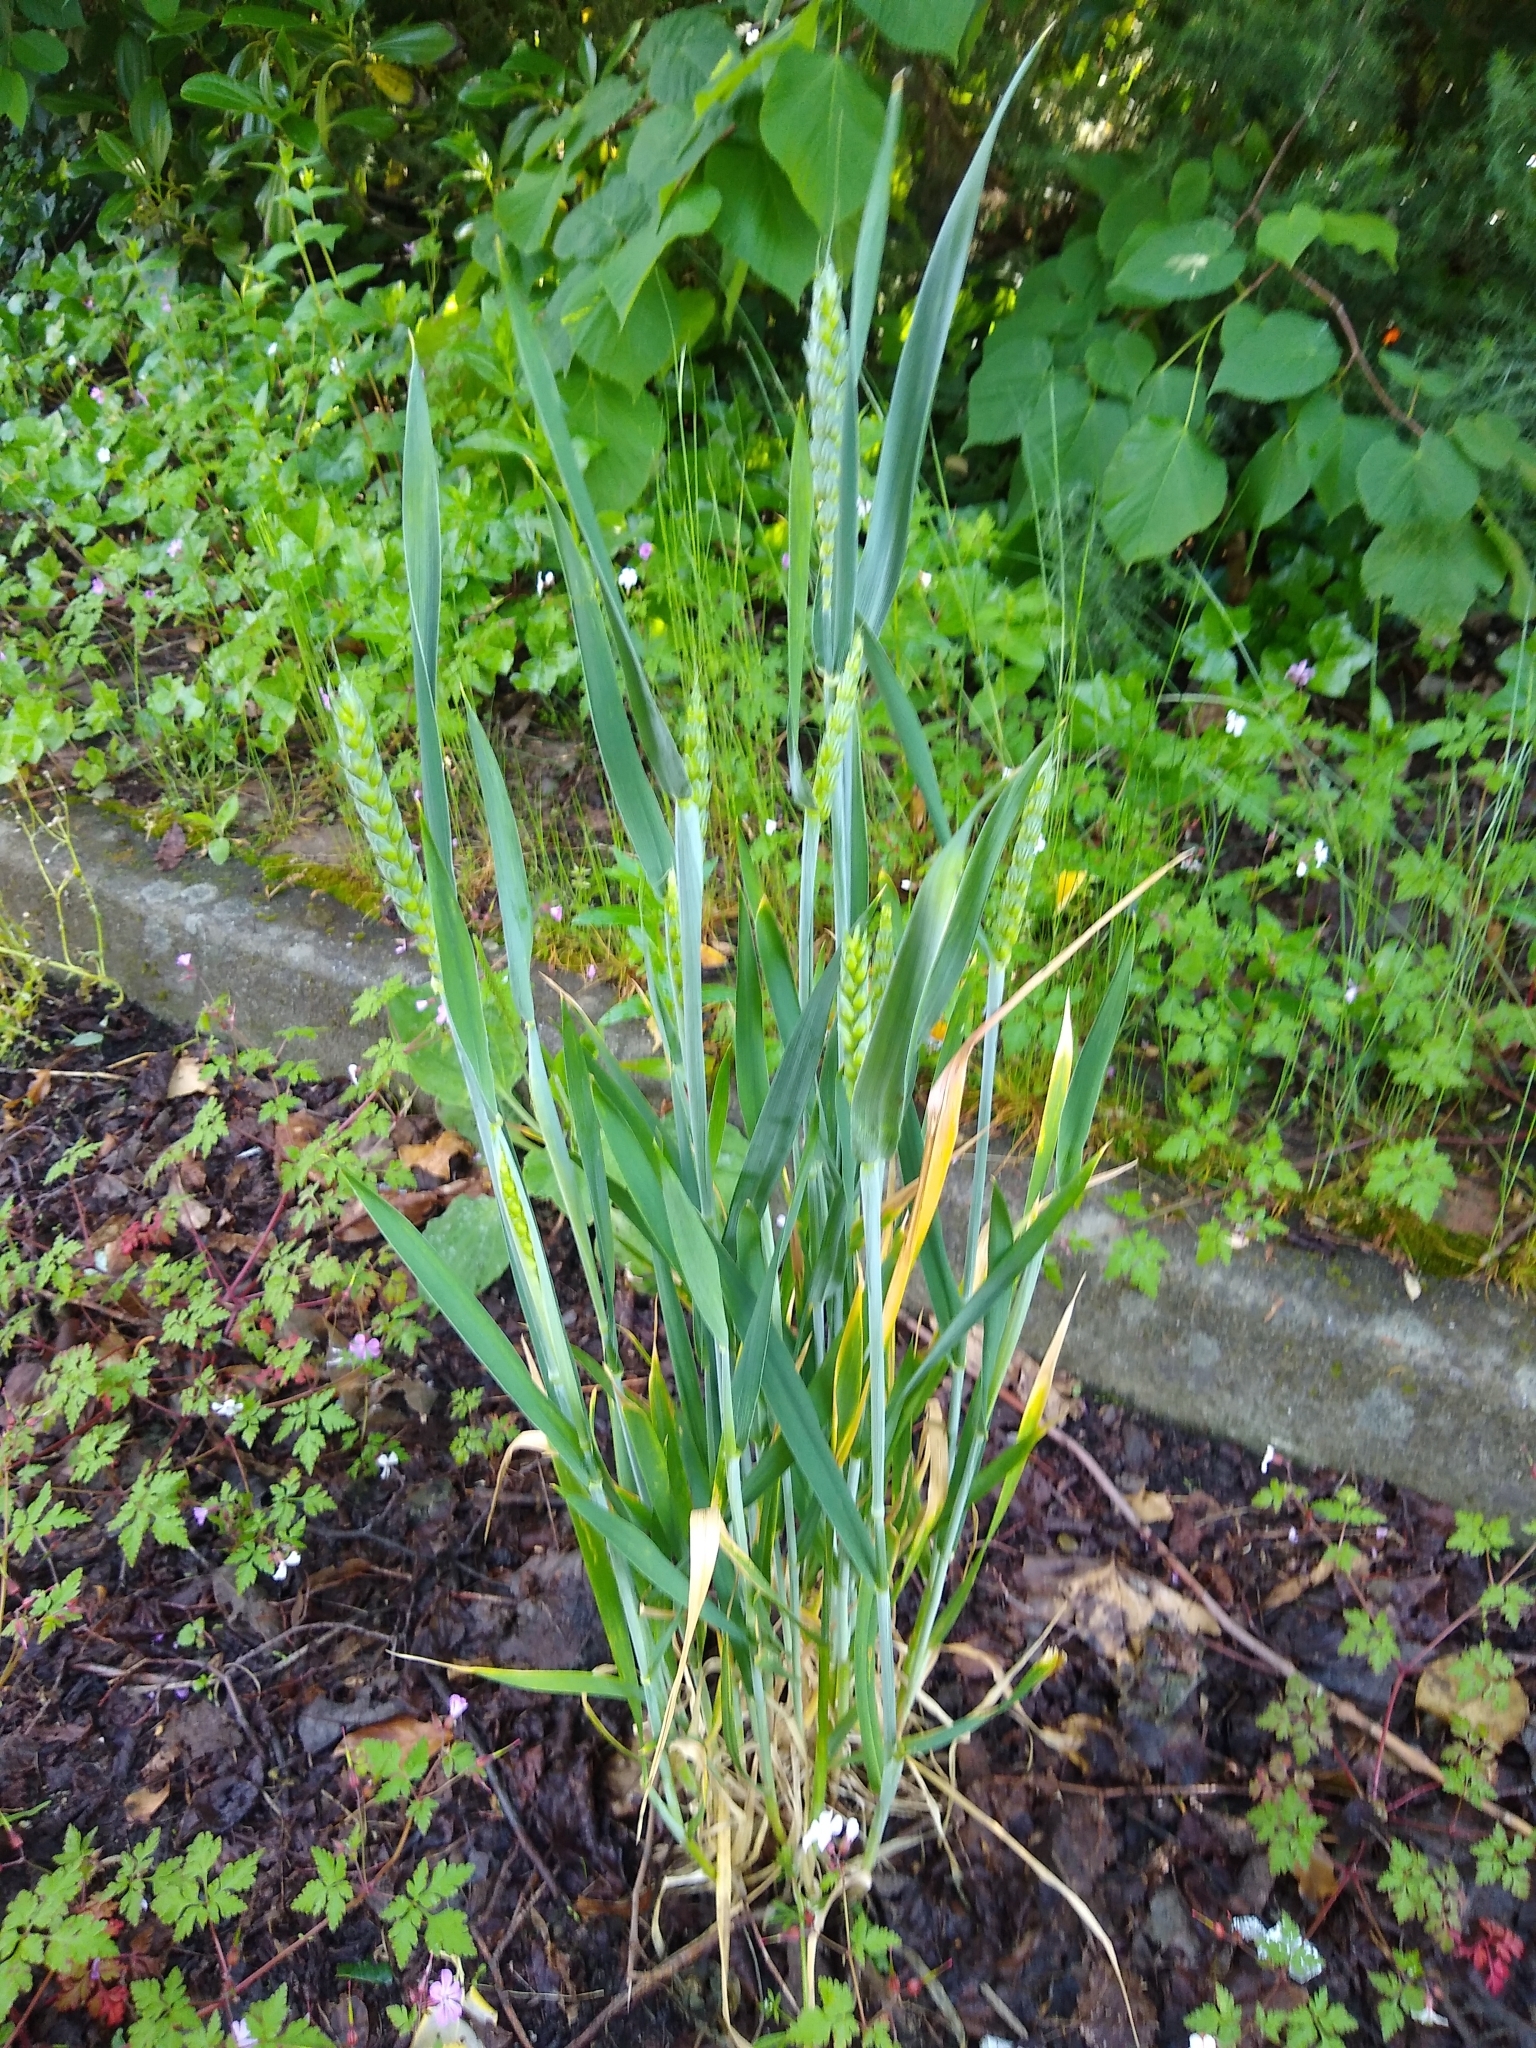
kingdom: Plantae
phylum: Tracheophyta
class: Liliopsida
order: Poales
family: Poaceae
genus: Triticum
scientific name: Triticum aestivum
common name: Common wheat
